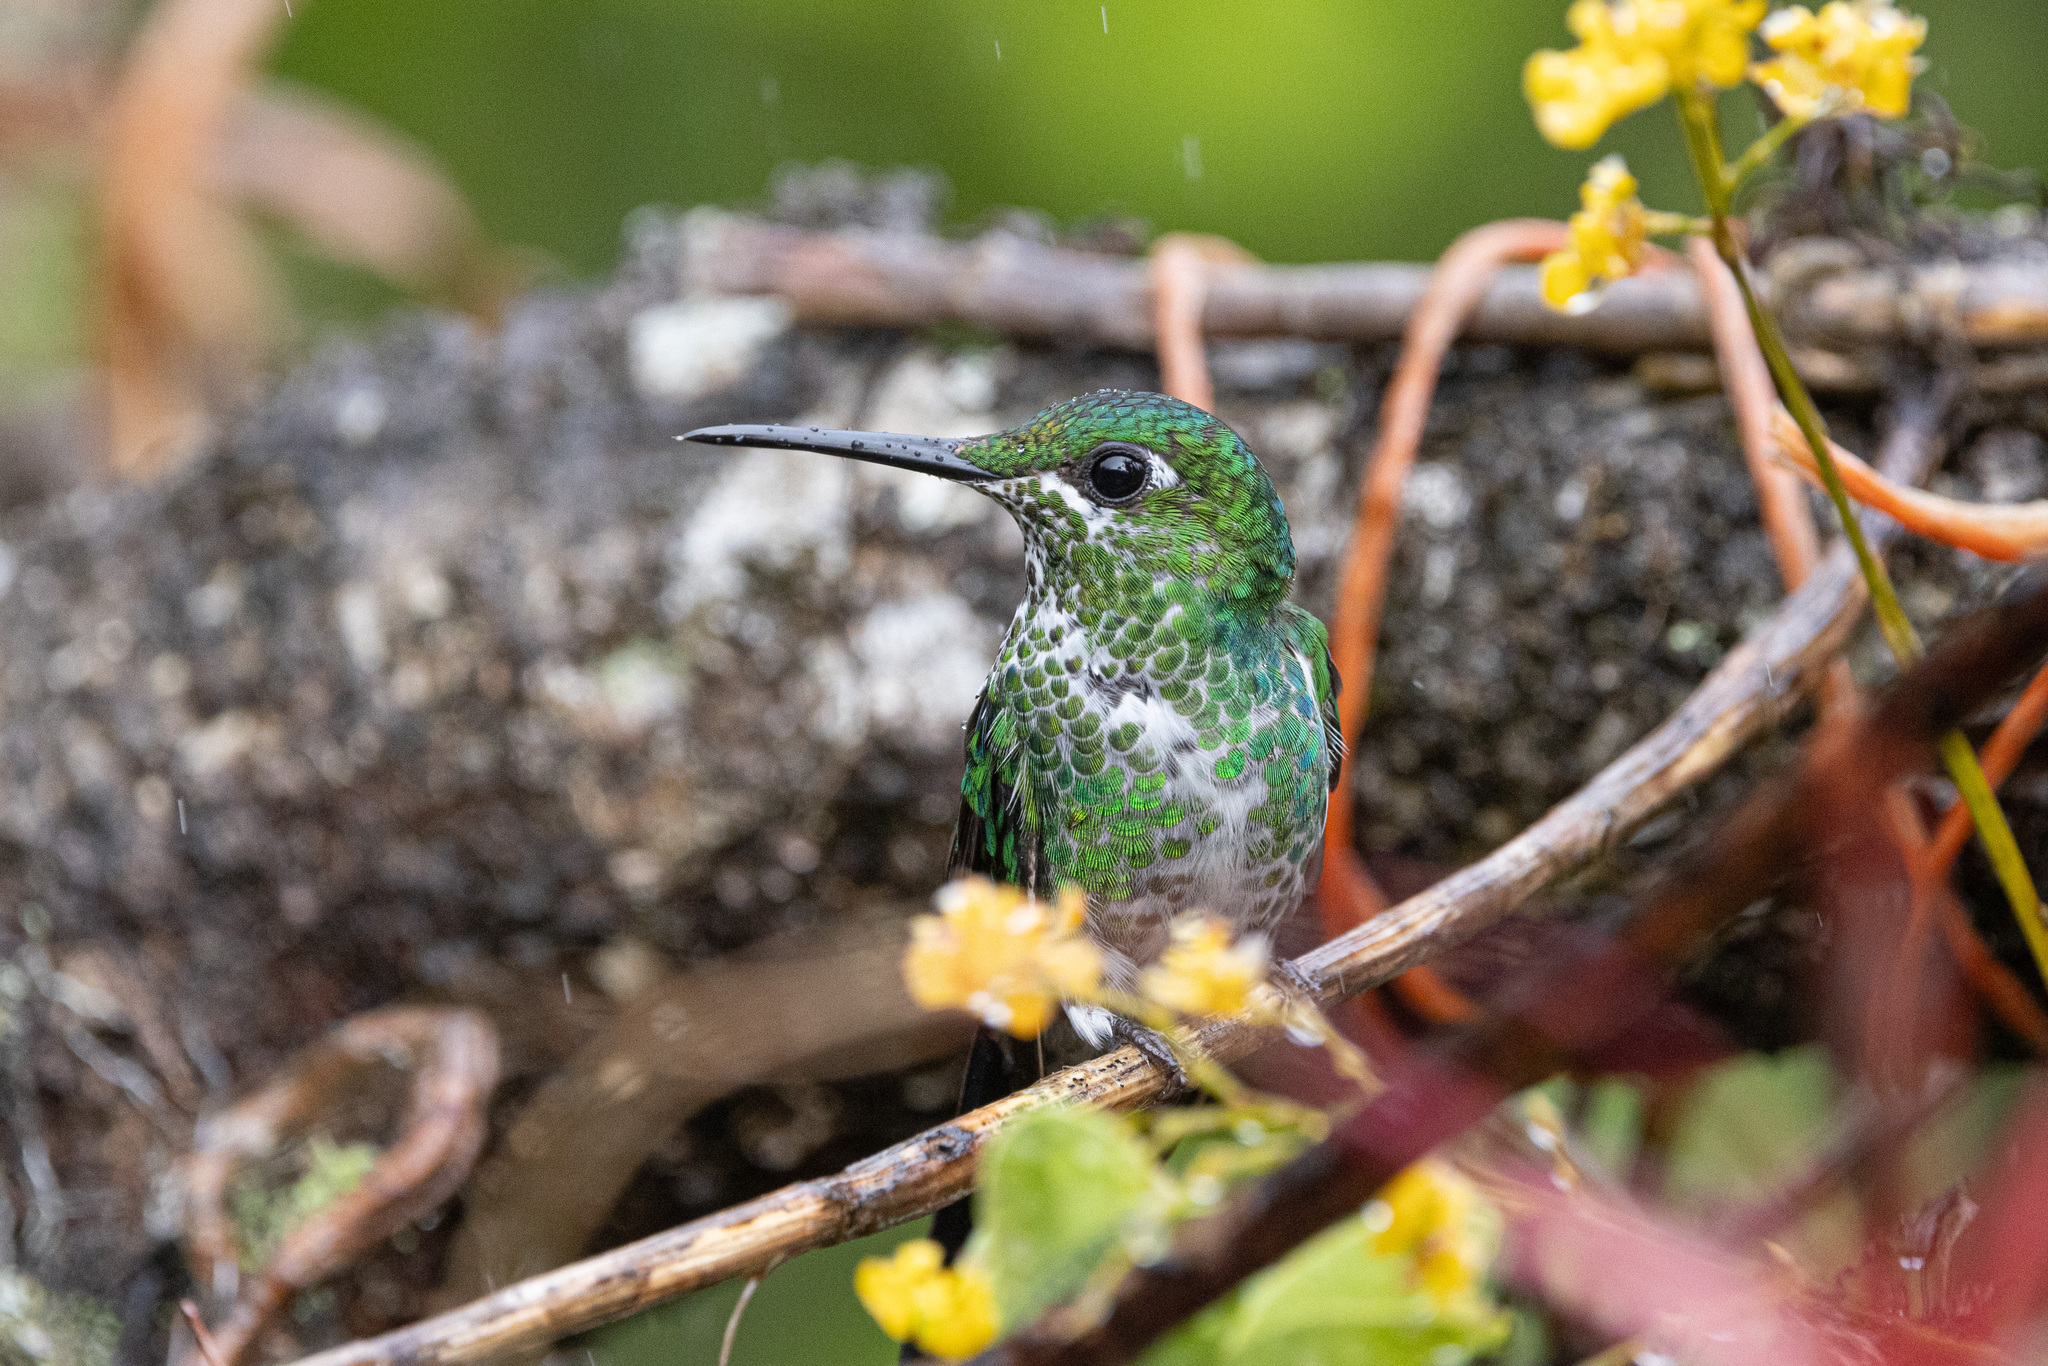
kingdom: Animalia
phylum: Chordata
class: Aves
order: Apodiformes
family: Trochilidae
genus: Heliodoxa
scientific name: Heliodoxa jacula
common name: Green-crowned brilliant
